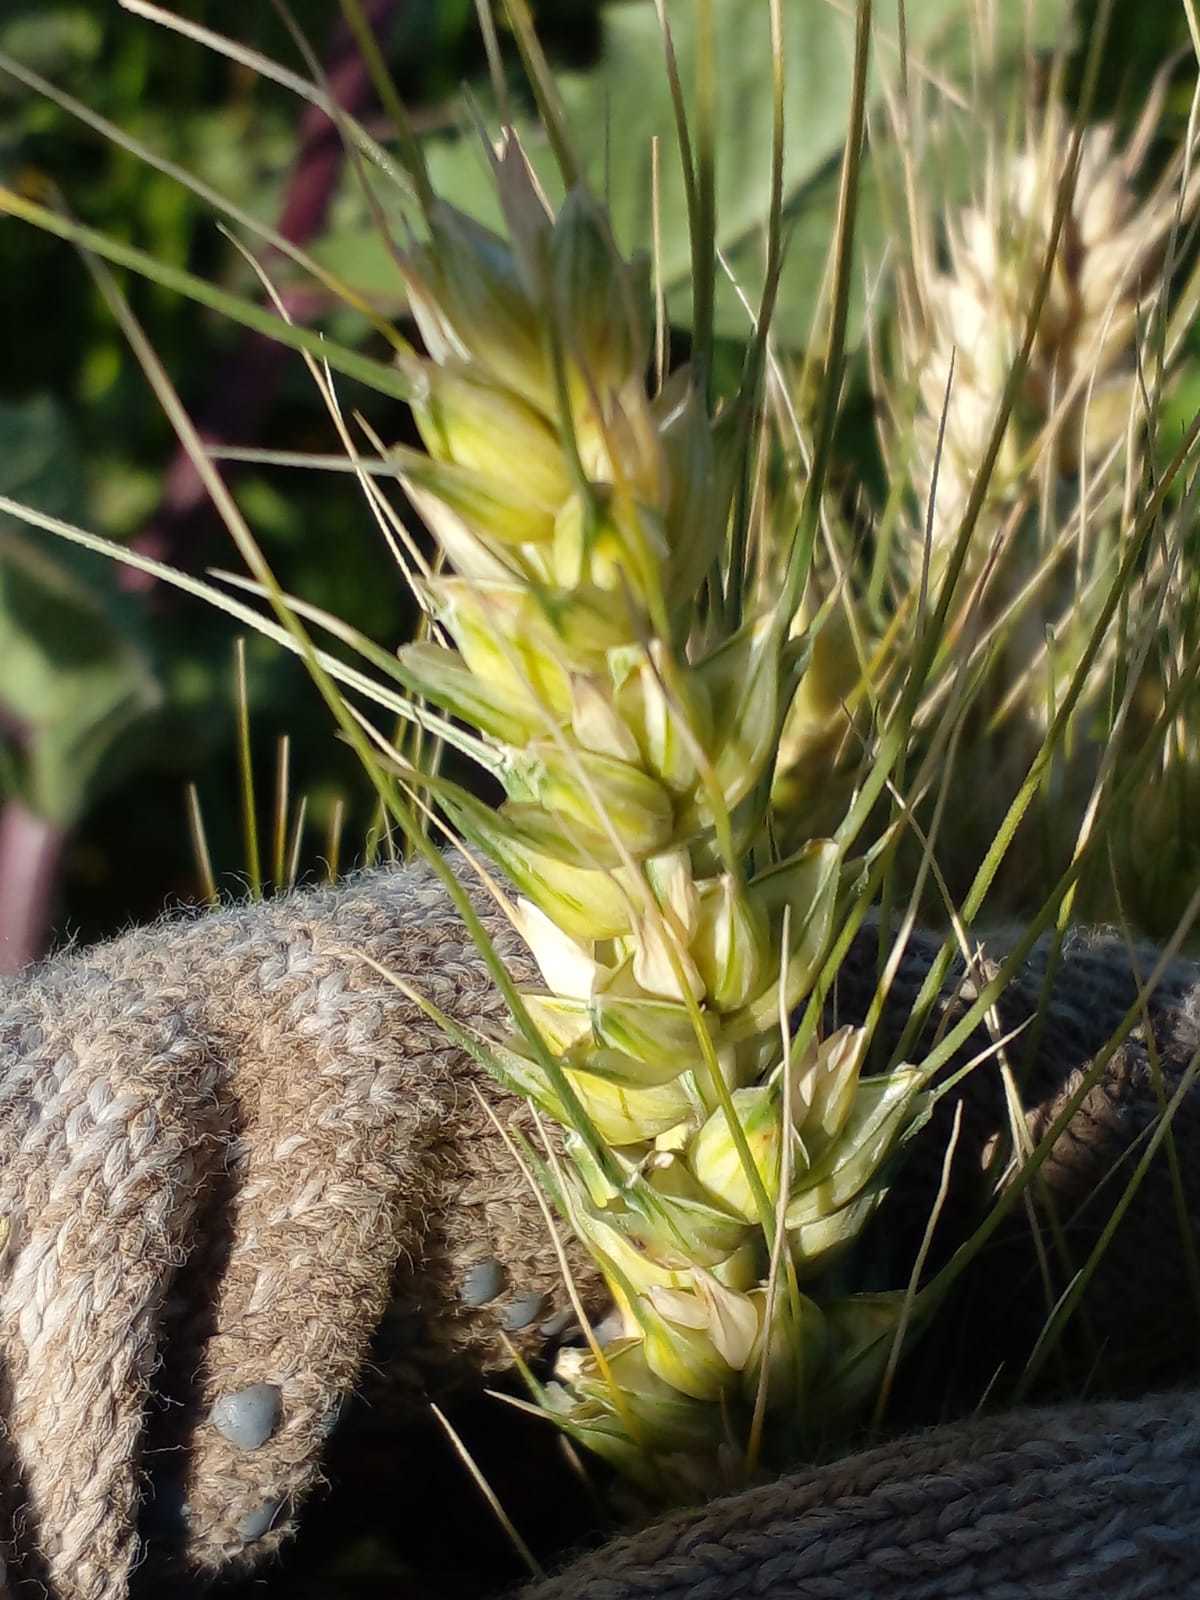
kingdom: Plantae
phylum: Tracheophyta
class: Liliopsida
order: Poales
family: Poaceae
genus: Triticum
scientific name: Triticum aestivum
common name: Common wheat
